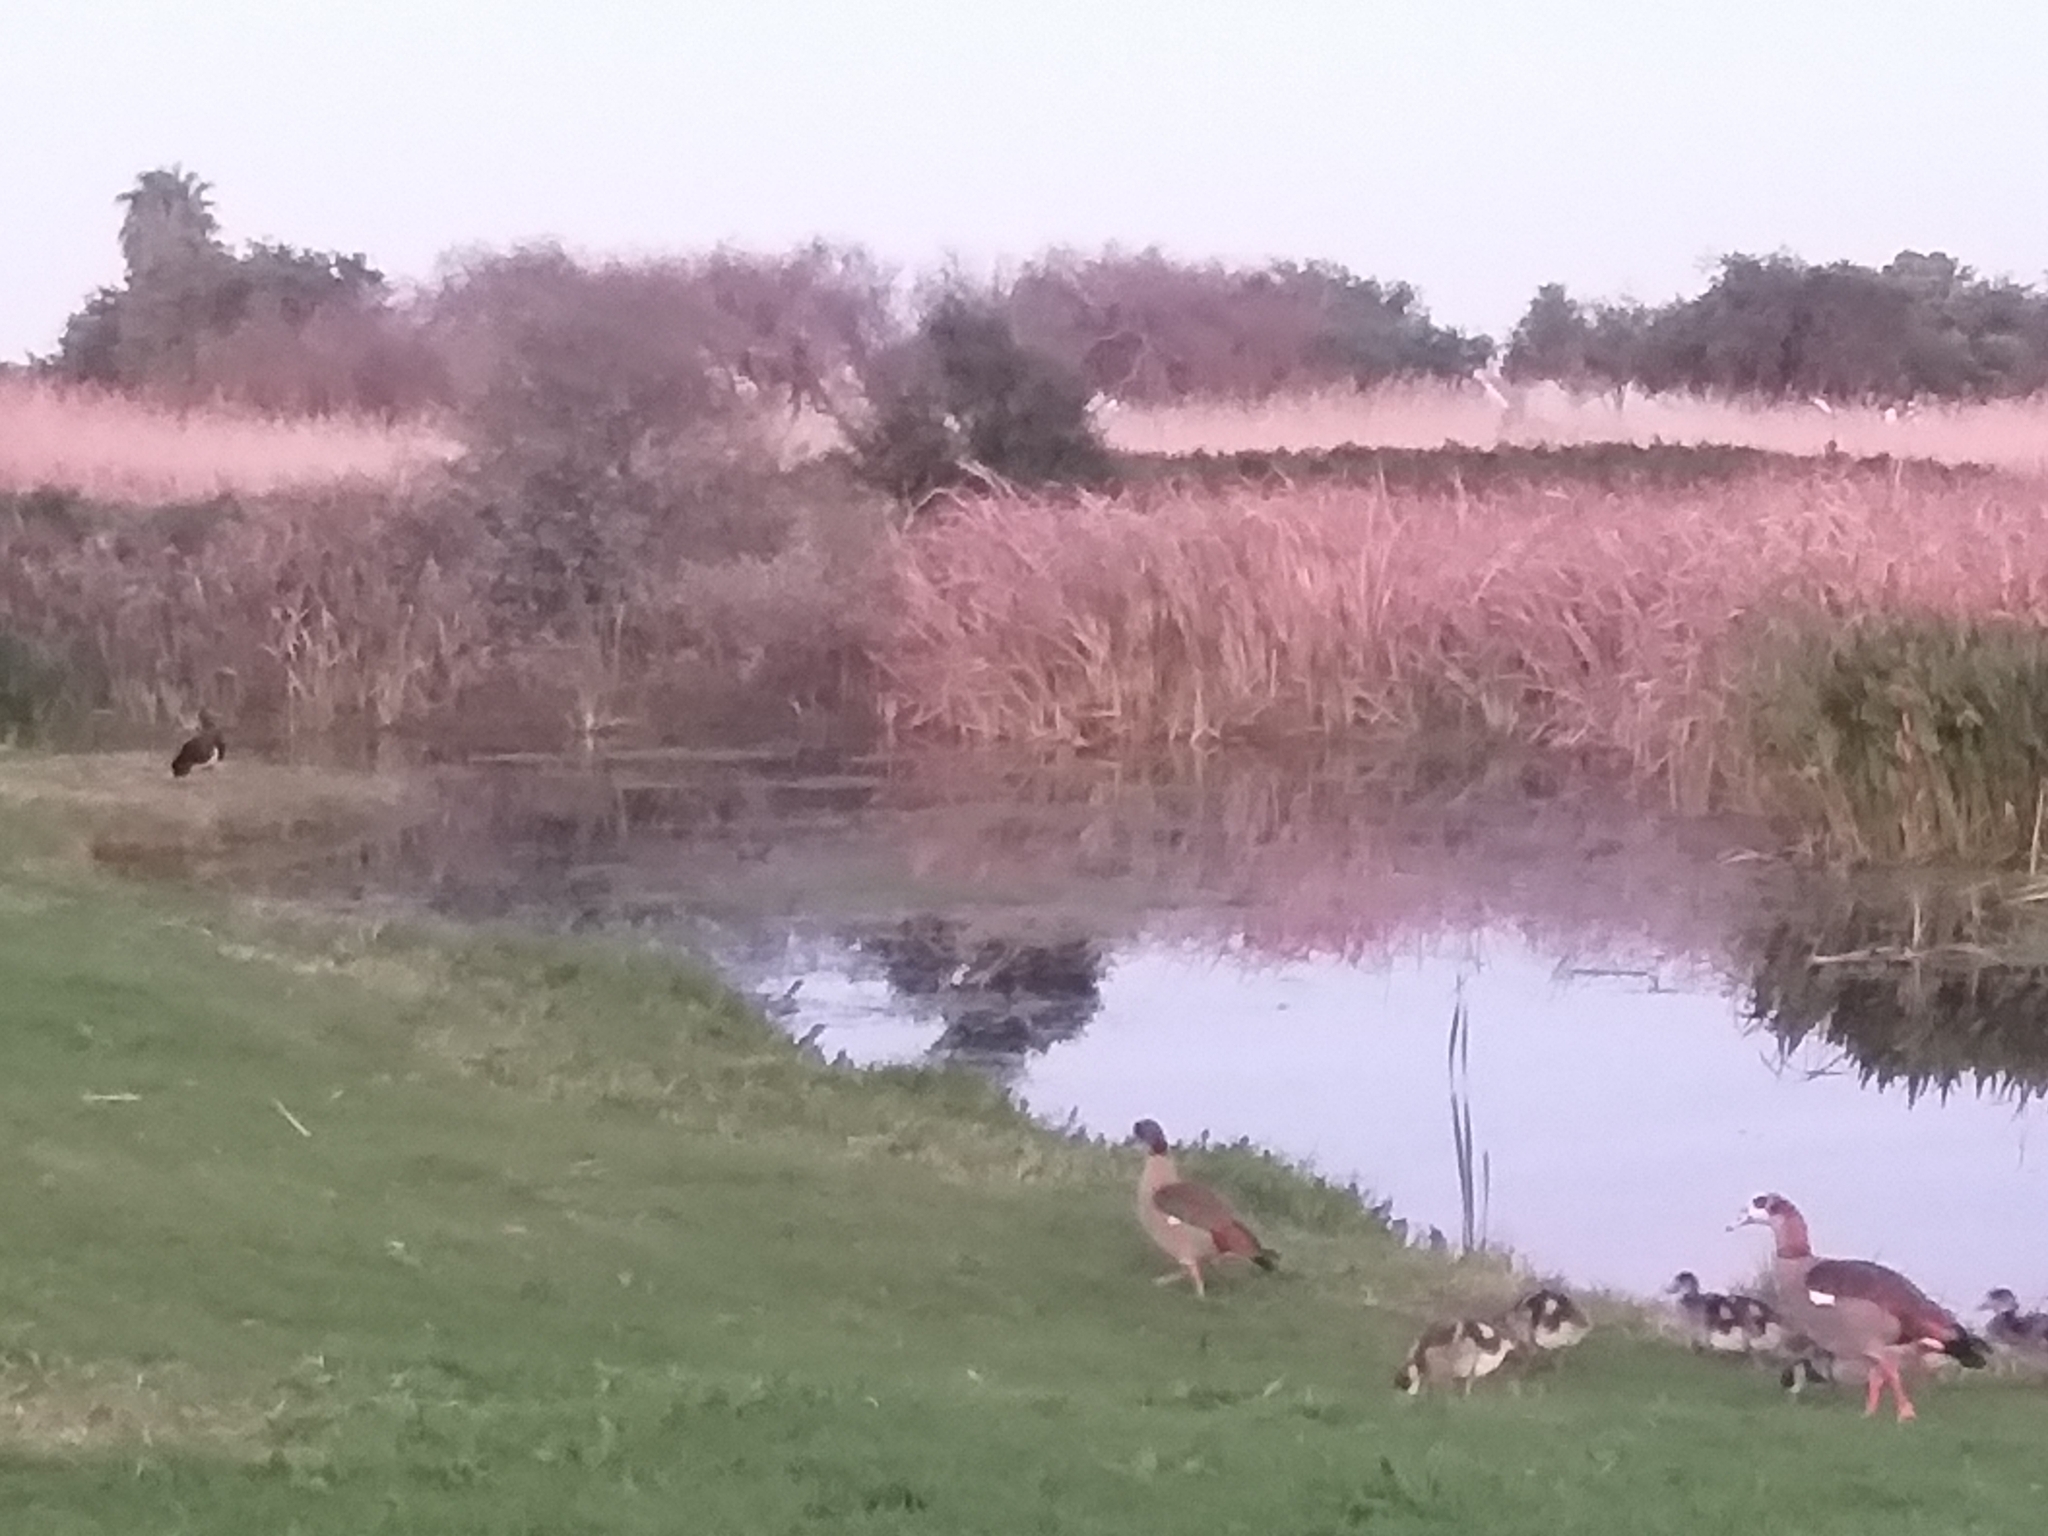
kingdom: Animalia
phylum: Chordata
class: Aves
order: Anseriformes
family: Anatidae
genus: Plectropterus
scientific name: Plectropterus gambensis
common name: Spur-winged goose
